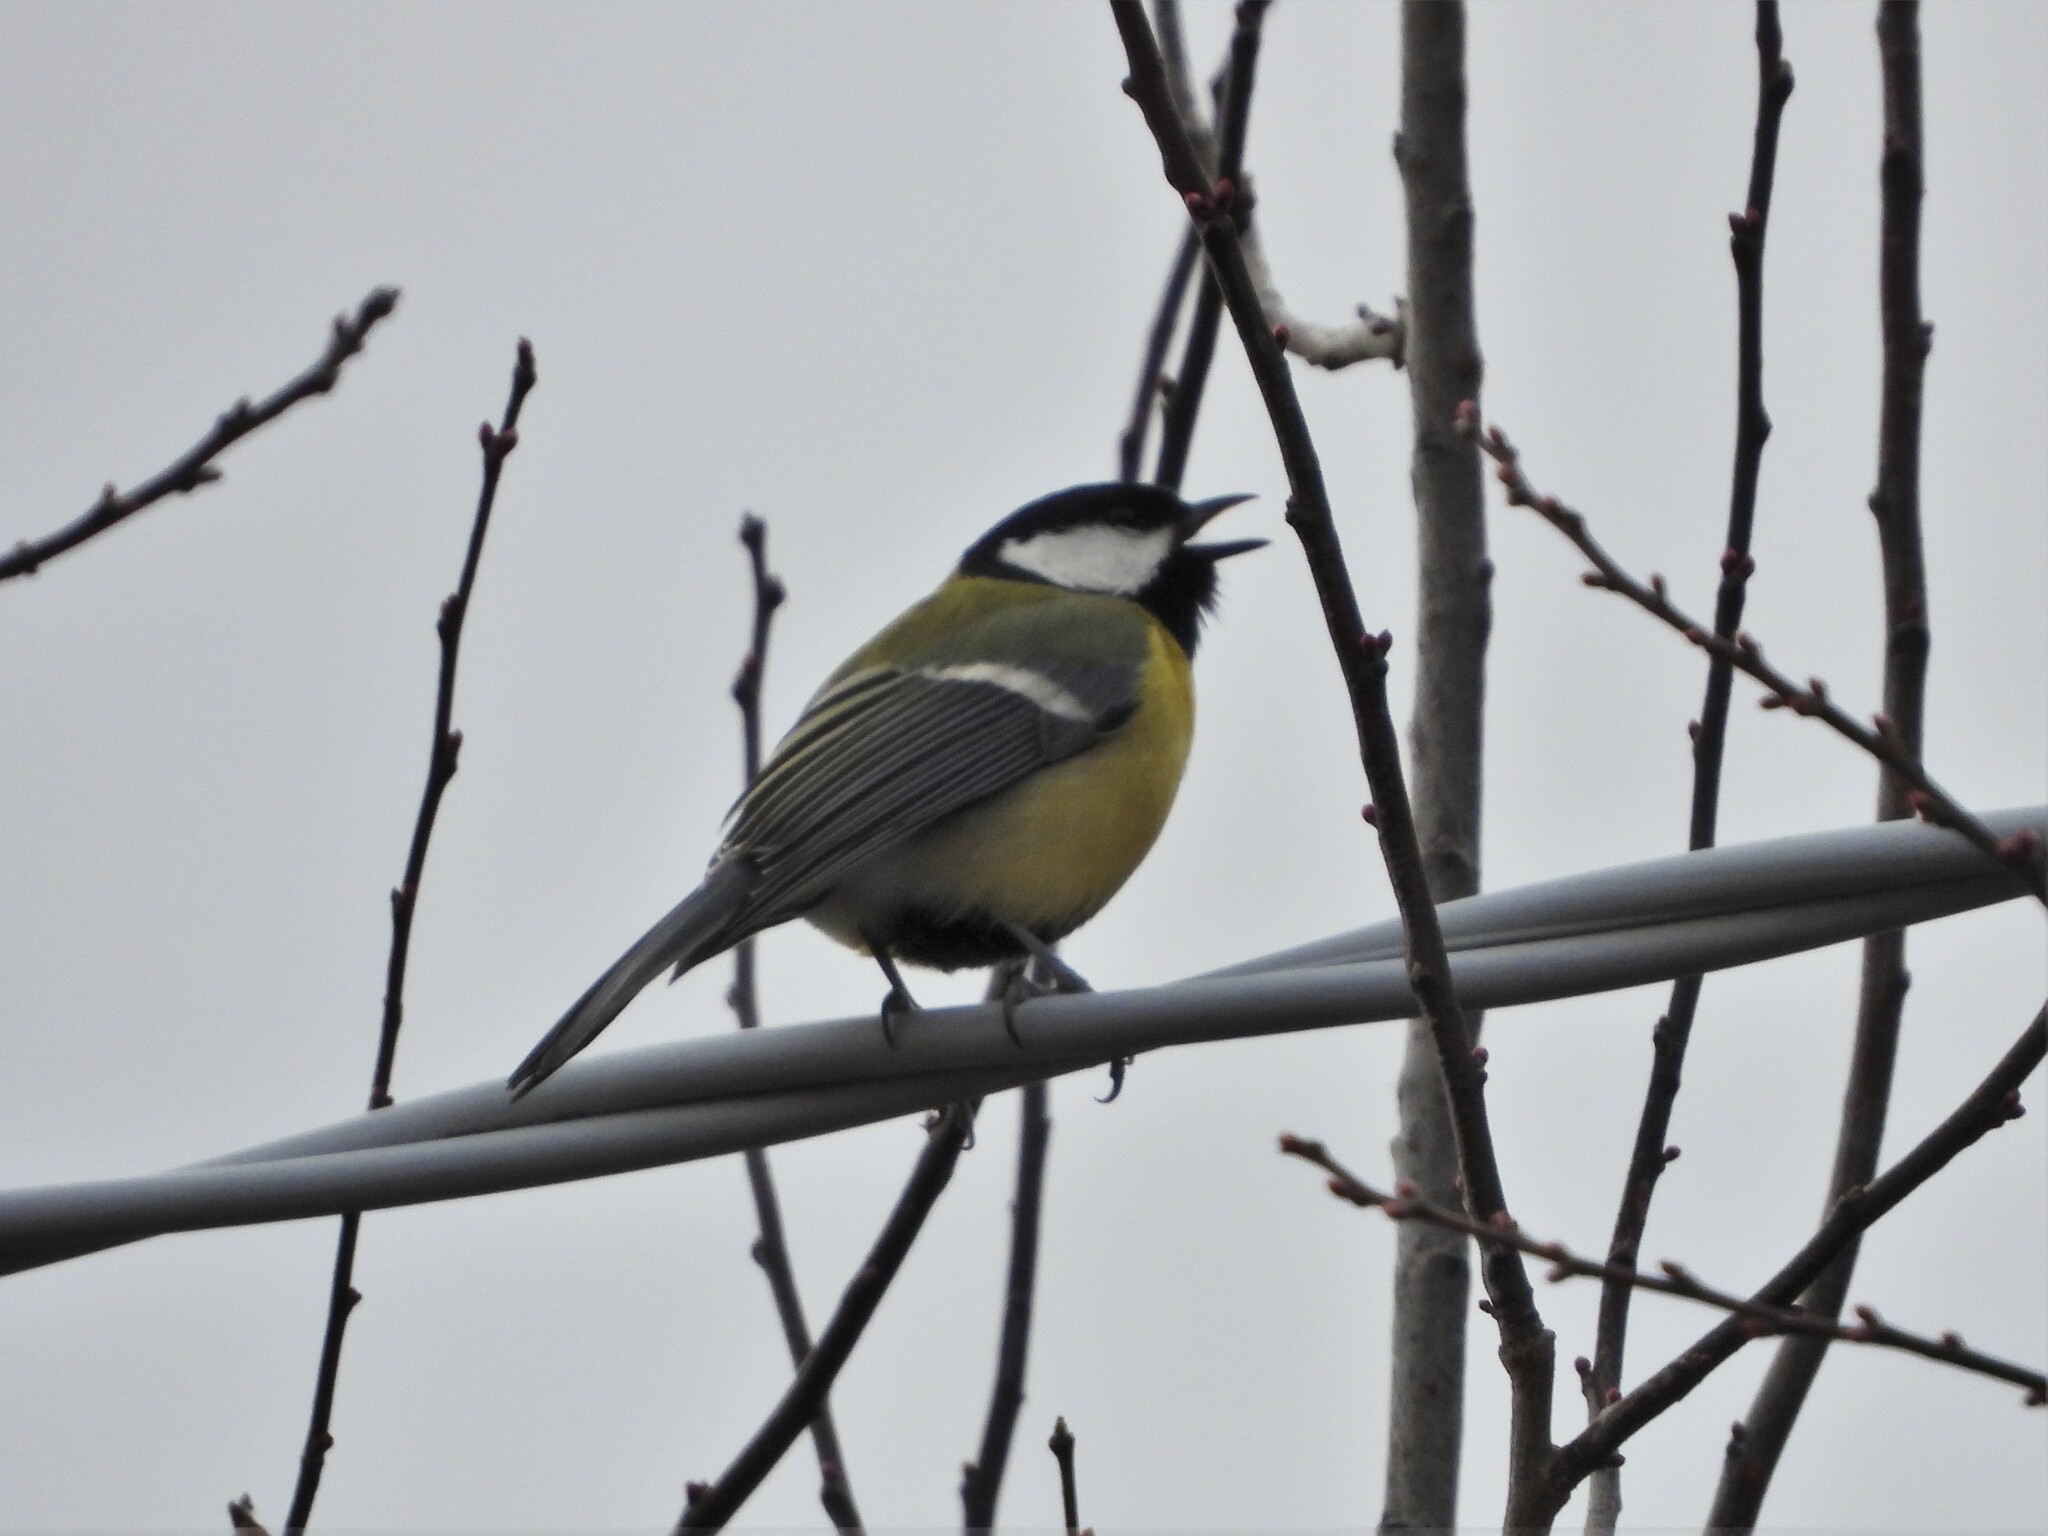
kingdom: Animalia
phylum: Chordata
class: Aves
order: Passeriformes
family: Paridae
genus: Parus
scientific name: Parus major
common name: Great tit
